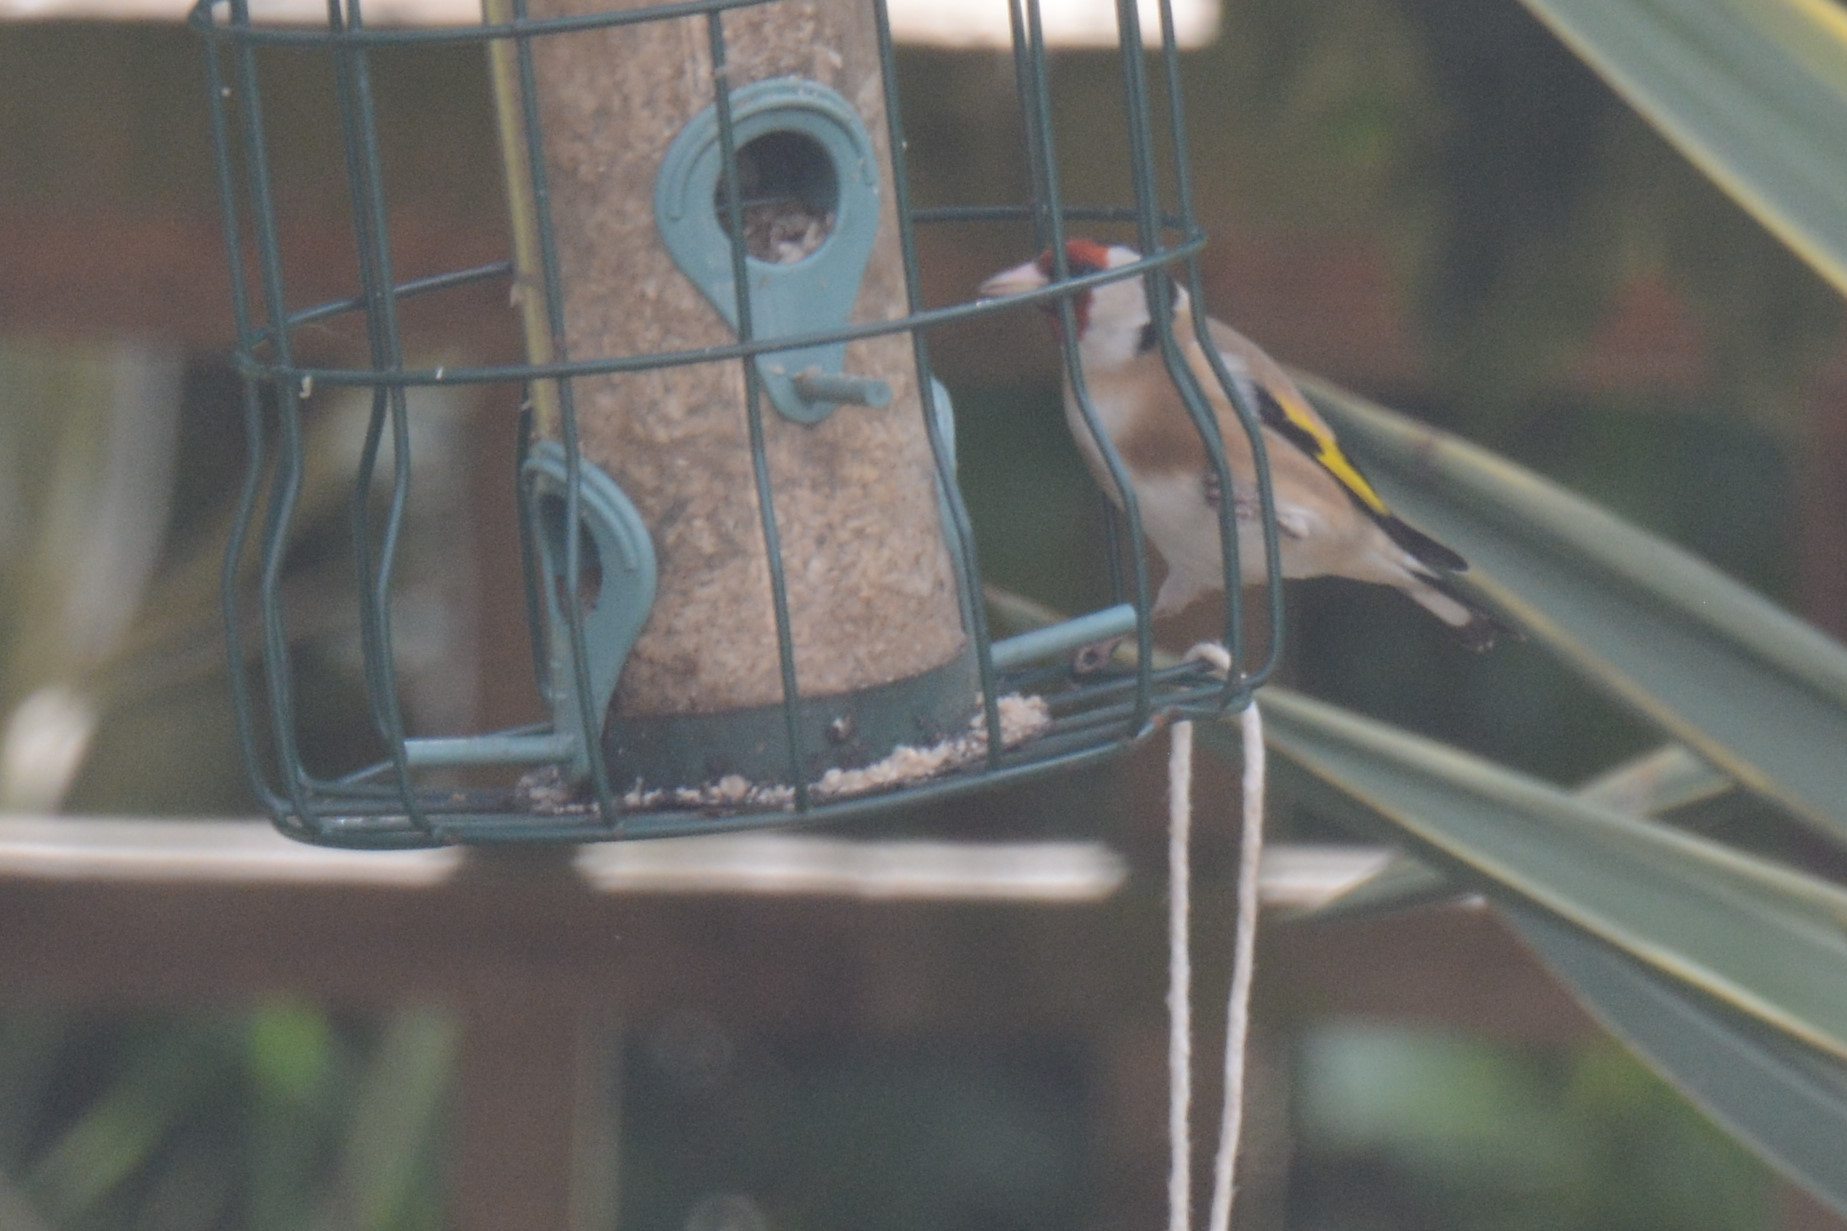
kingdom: Animalia
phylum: Chordata
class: Aves
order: Passeriformes
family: Fringillidae
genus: Carduelis
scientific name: Carduelis carduelis
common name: European goldfinch
